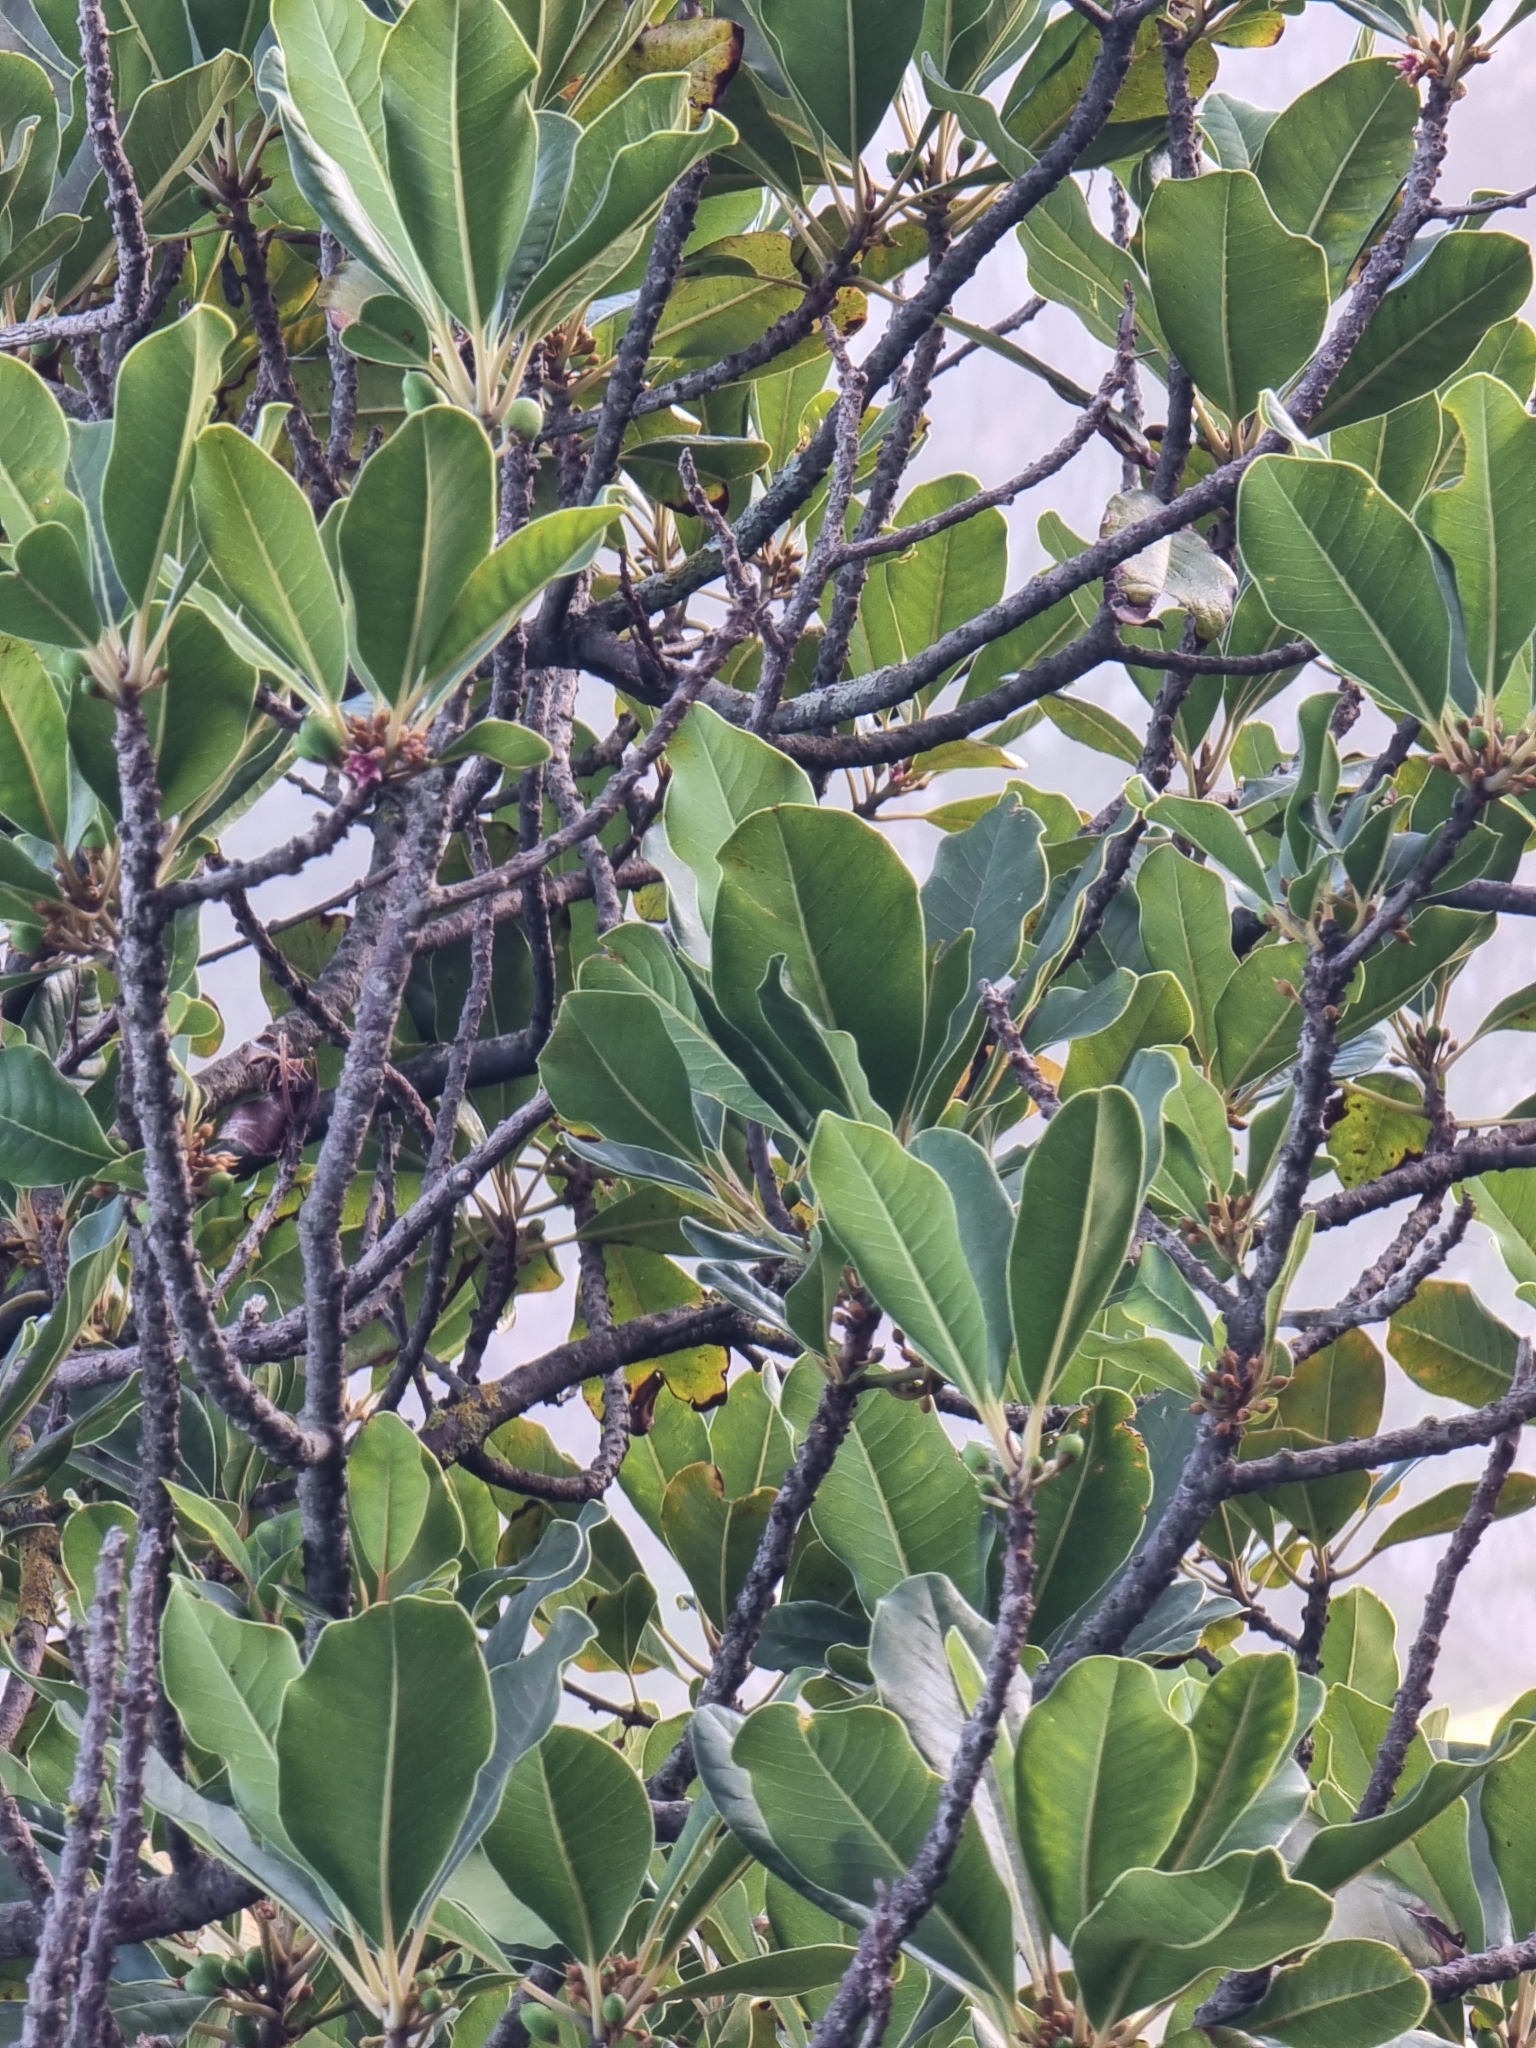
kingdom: Plantae
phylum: Tracheophyta
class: Magnoliopsida
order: Ericales
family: Sapotaceae
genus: Sideroxylon
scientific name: Sideroxylon mirmulans
